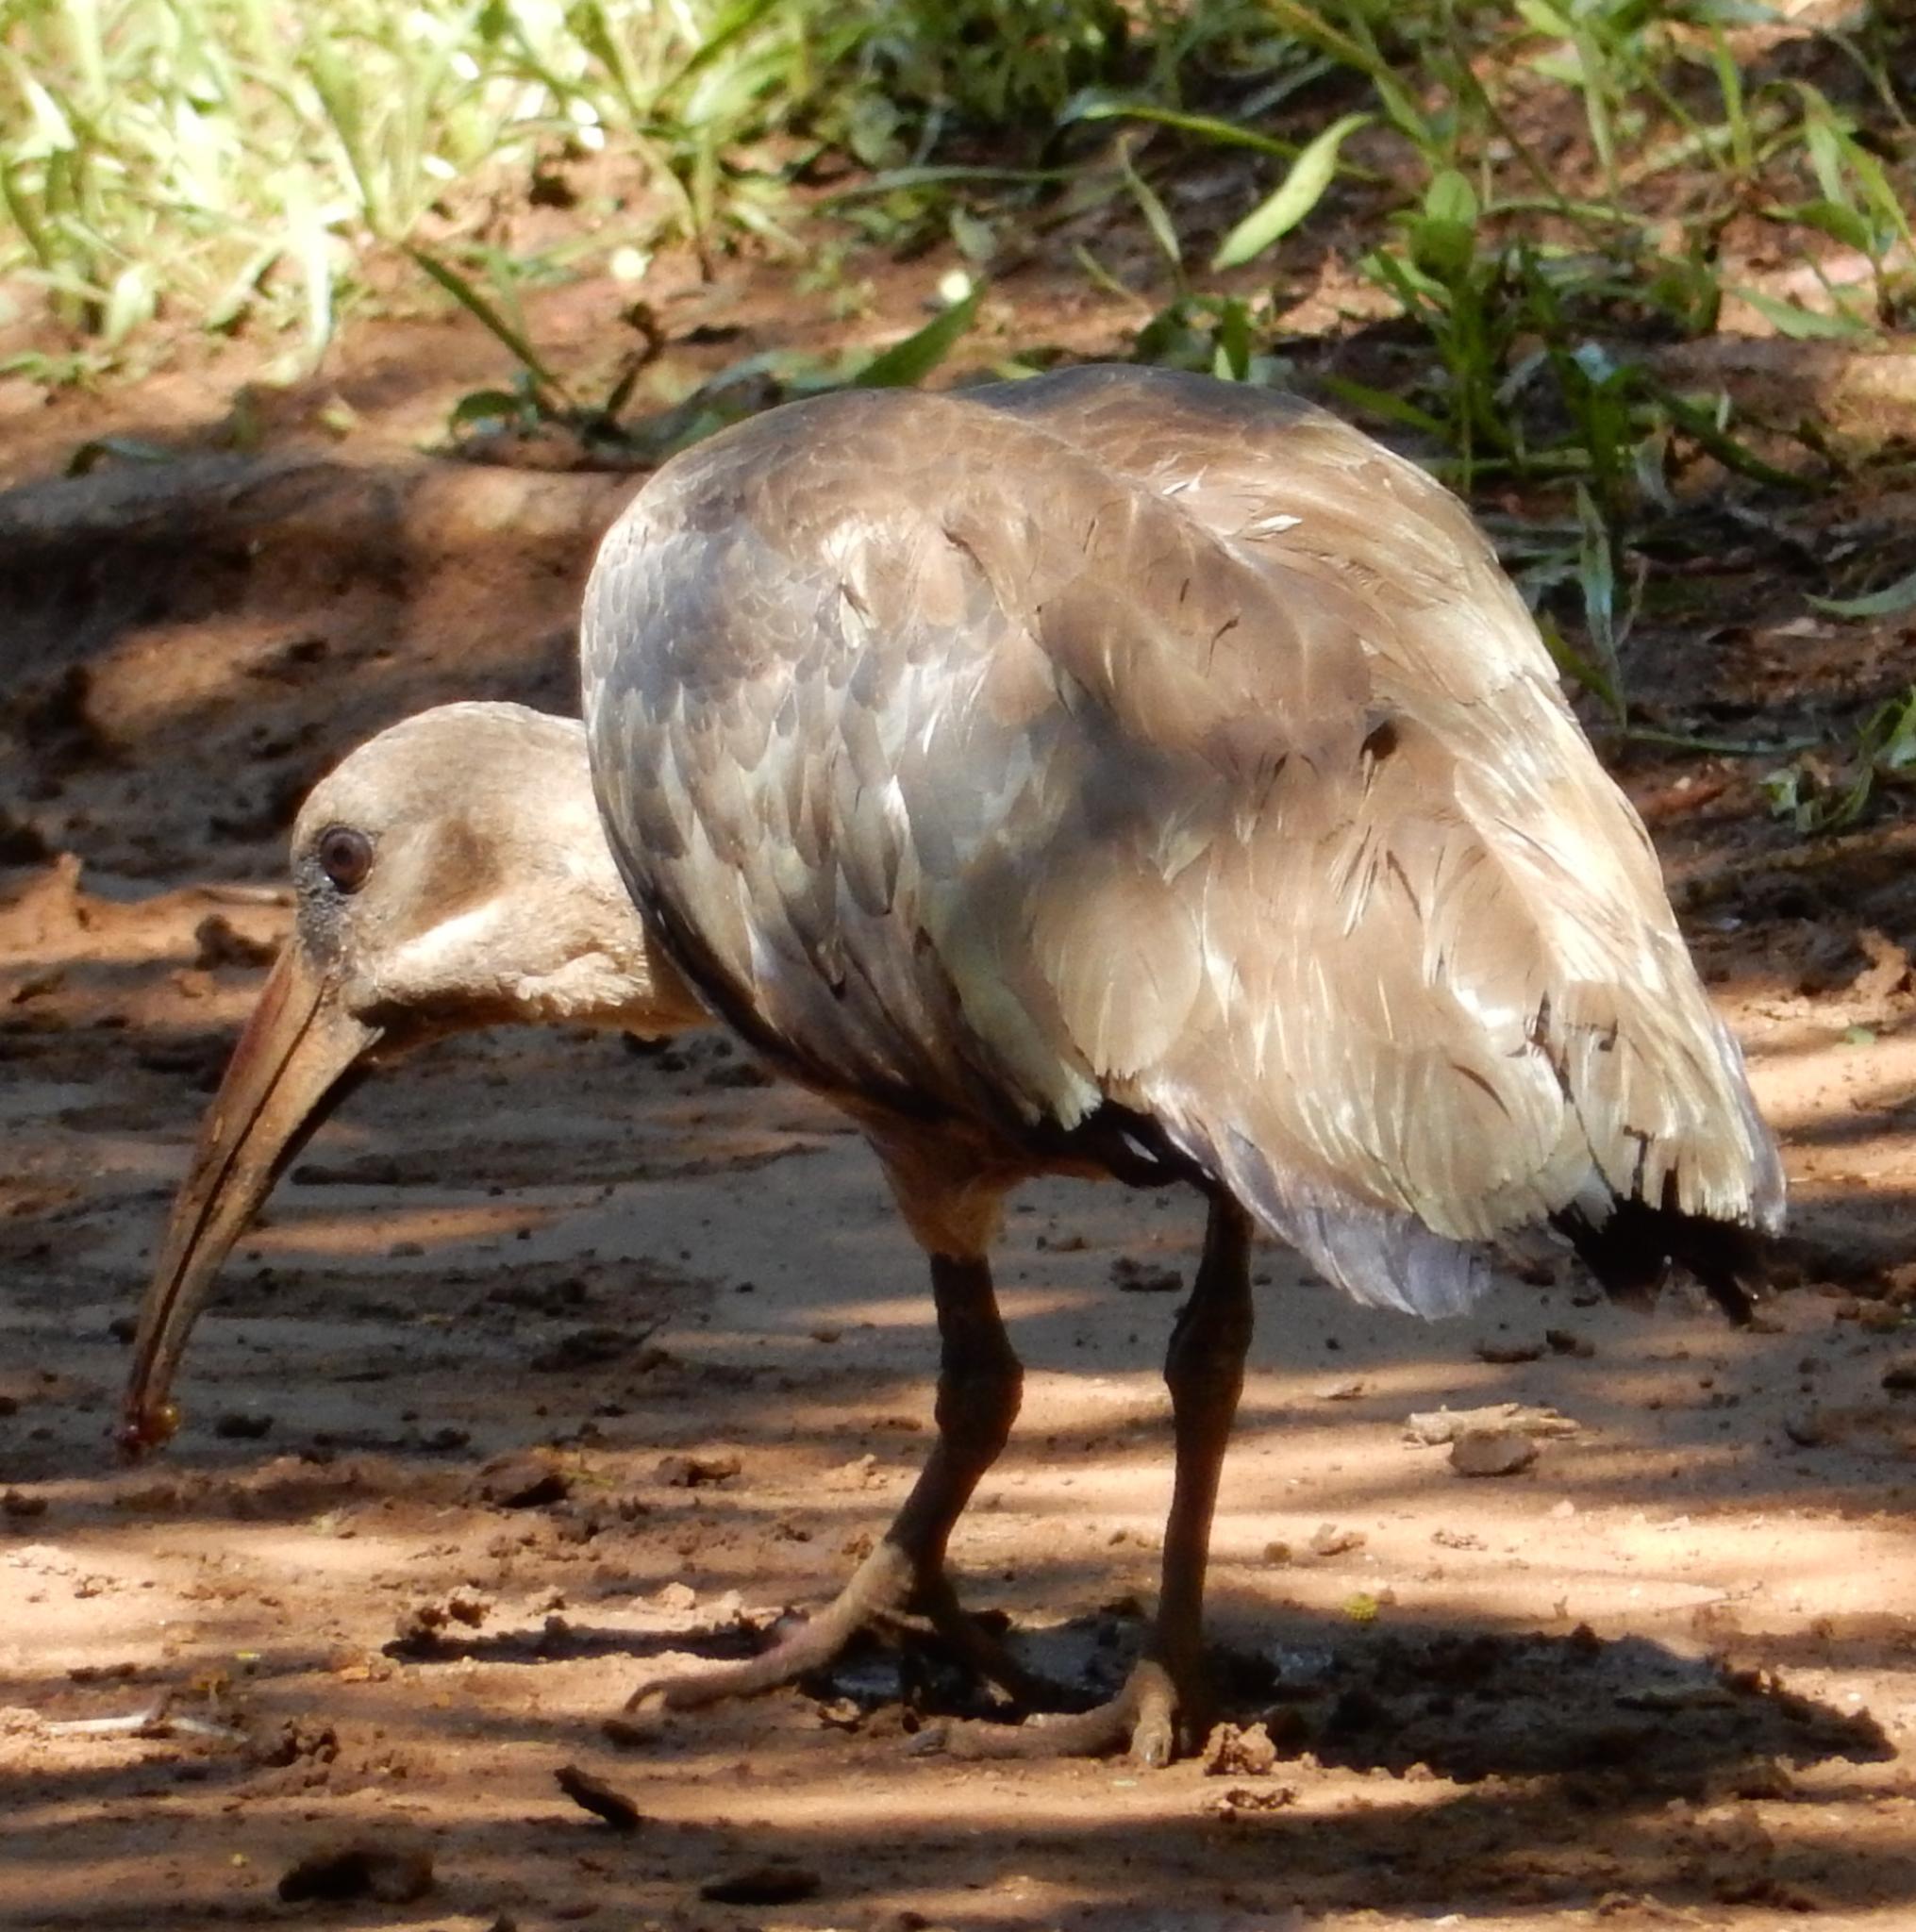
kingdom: Animalia
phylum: Chordata
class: Aves
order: Pelecaniformes
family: Threskiornithidae
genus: Bostrychia
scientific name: Bostrychia hagedash
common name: Hadada ibis
